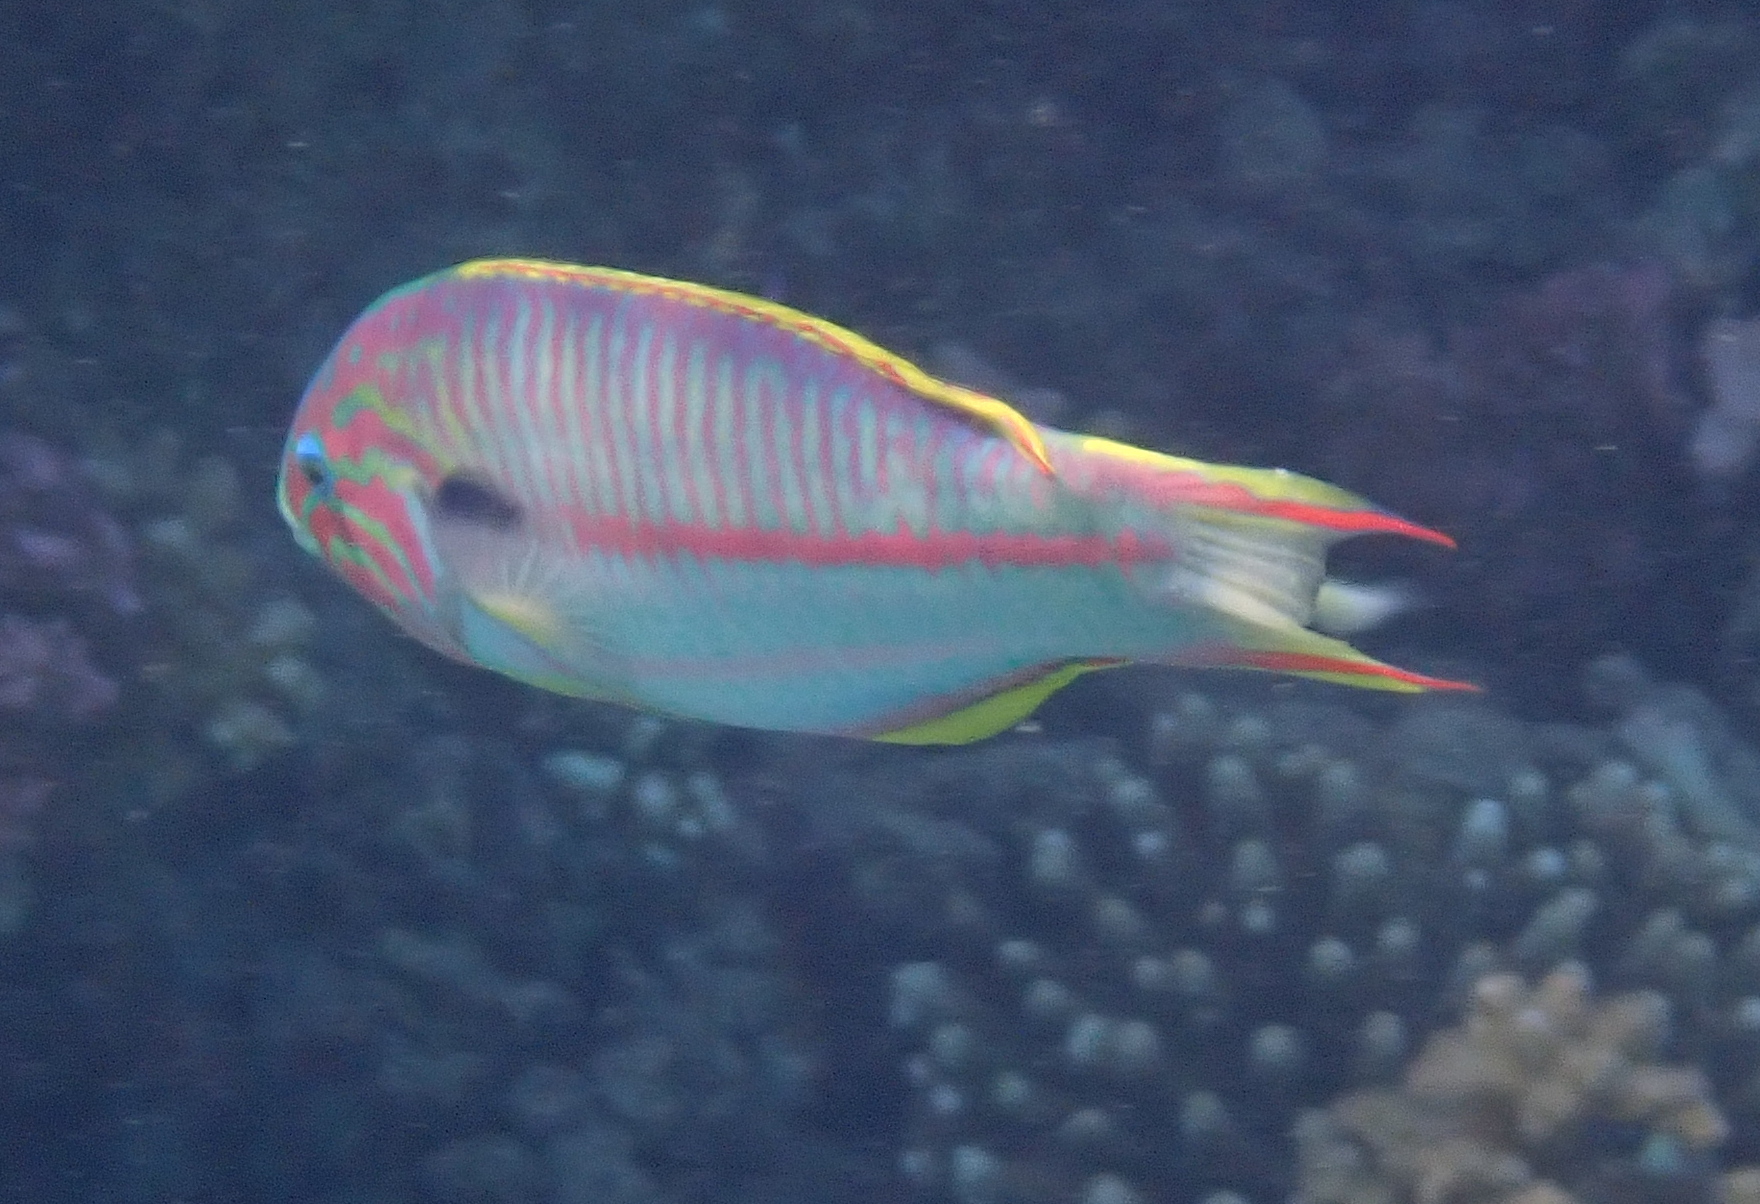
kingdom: Animalia
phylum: Chordata
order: Perciformes
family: Labridae
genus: Thalassoma
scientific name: Thalassoma rueppellii
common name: Klunzinger's wrasse
